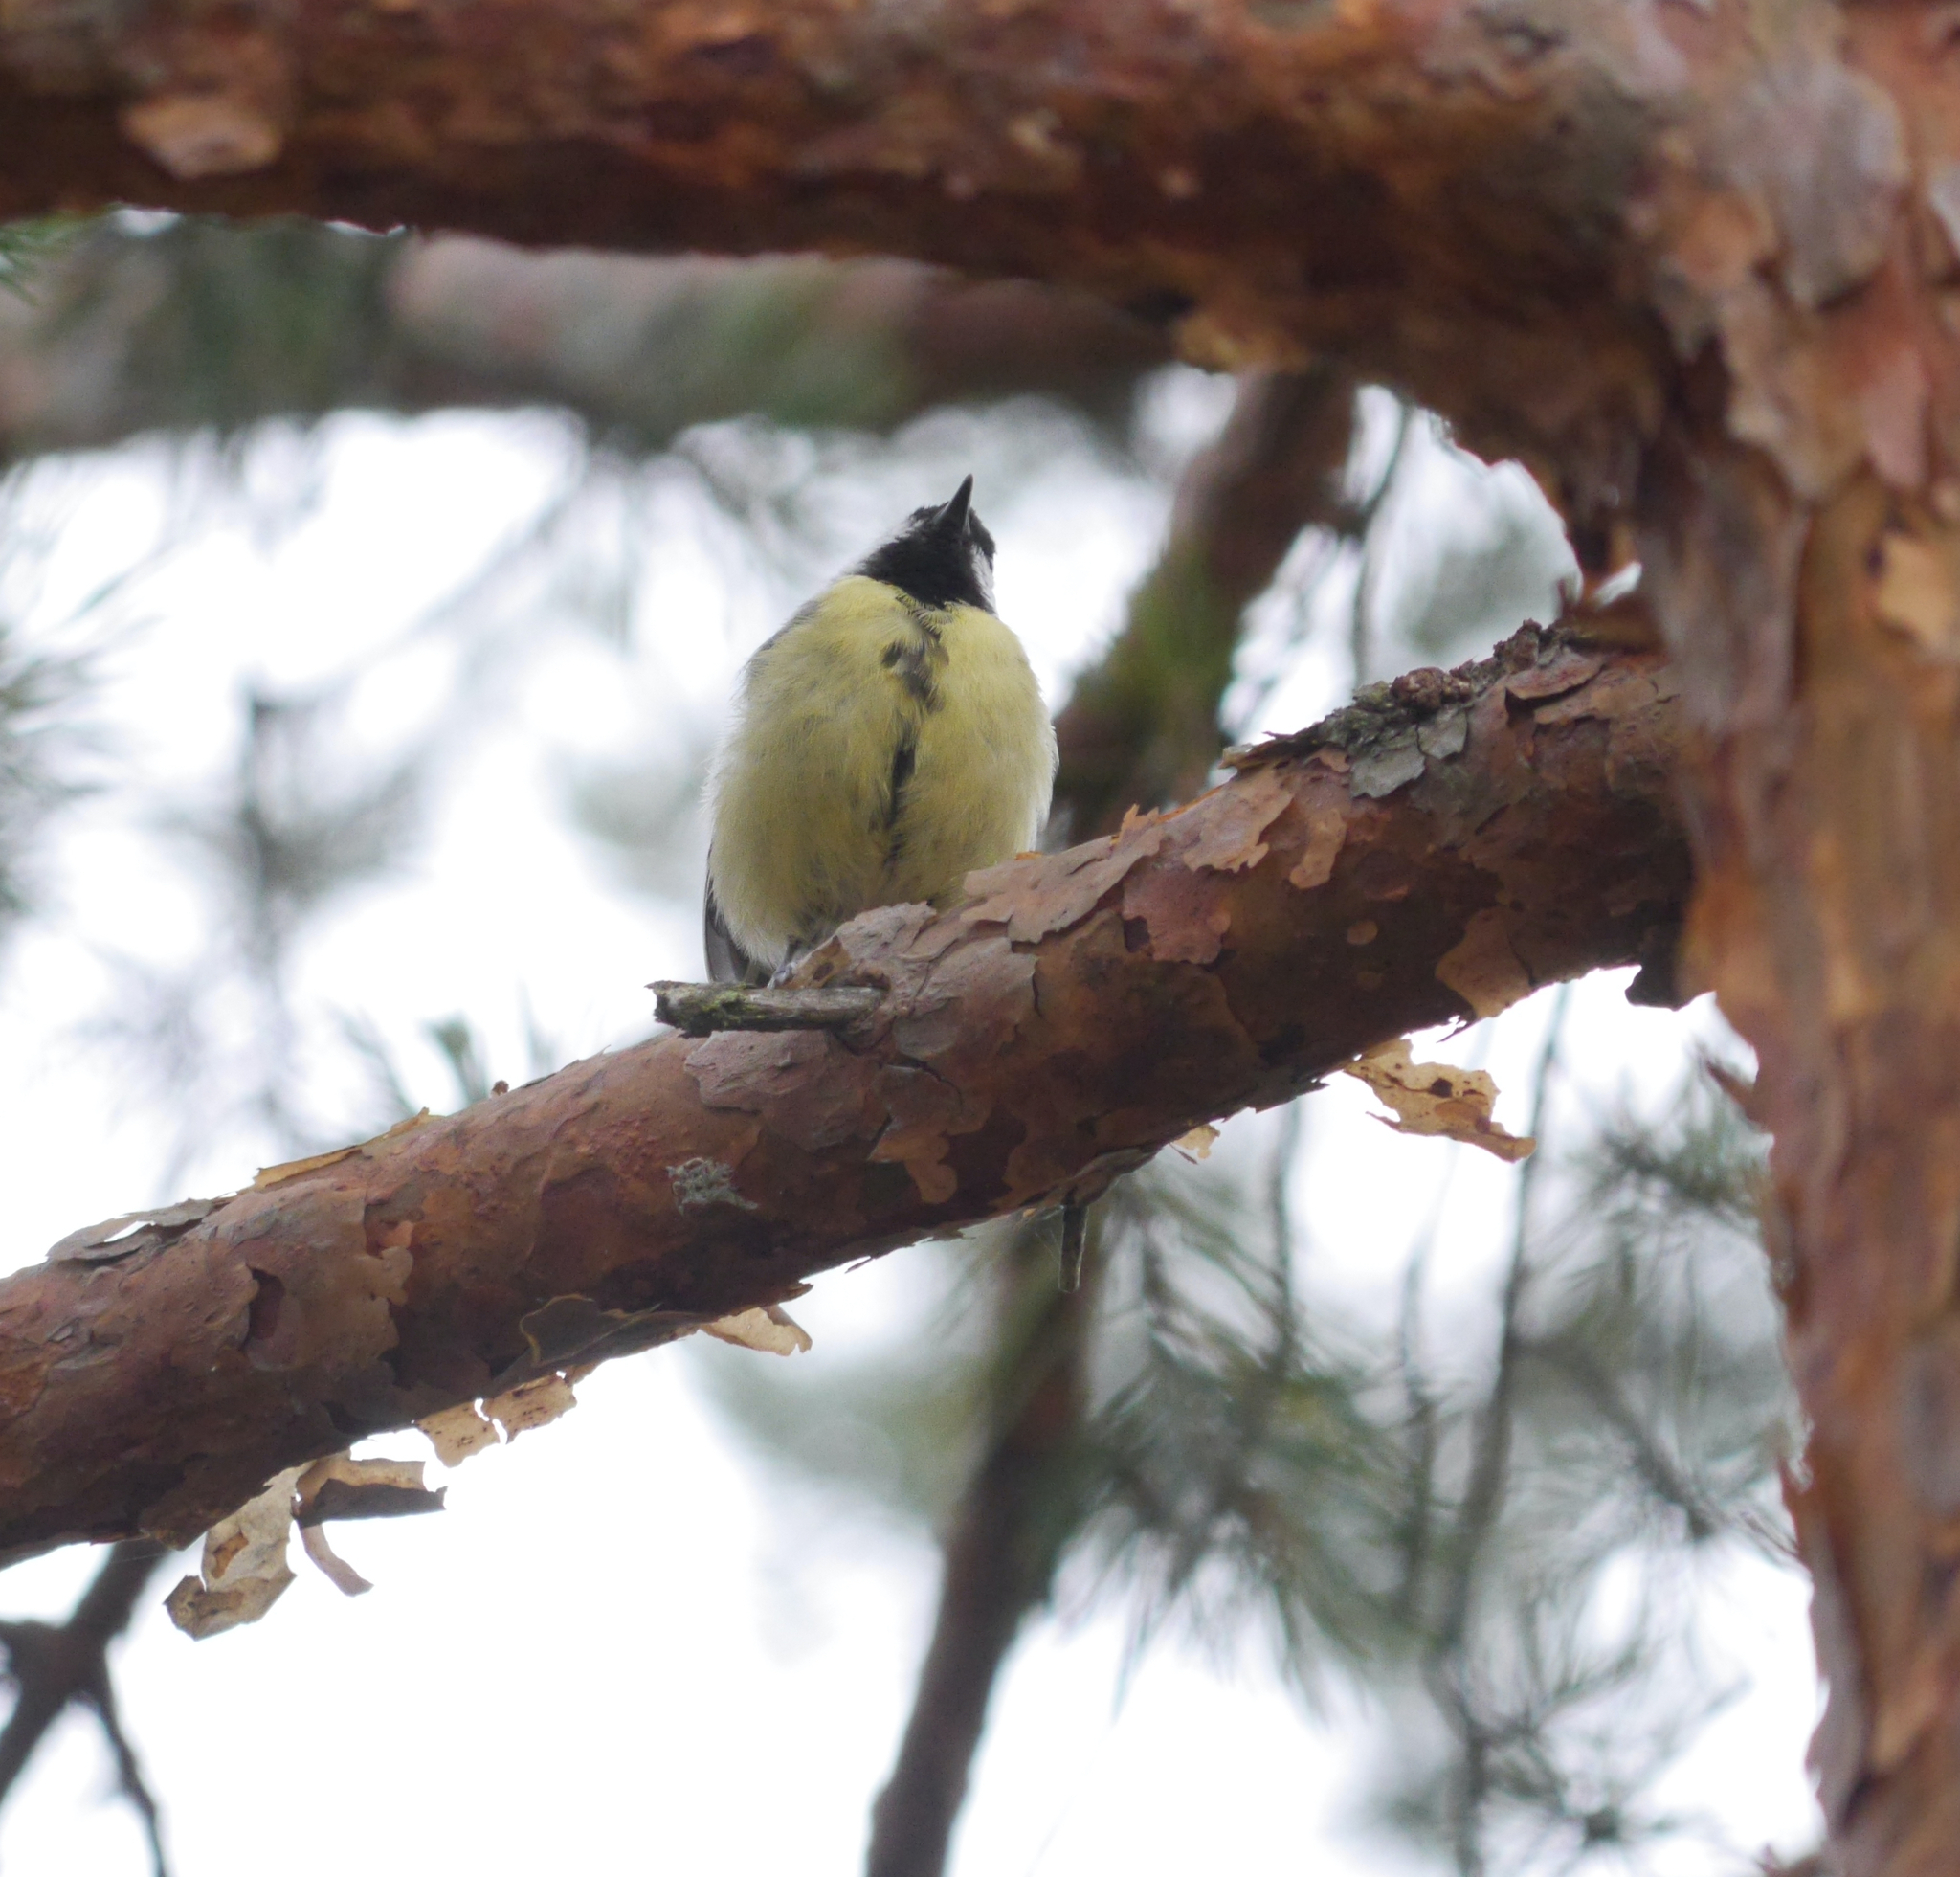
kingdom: Animalia
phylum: Chordata
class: Aves
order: Passeriformes
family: Paridae
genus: Parus
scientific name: Parus major
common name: Great tit
